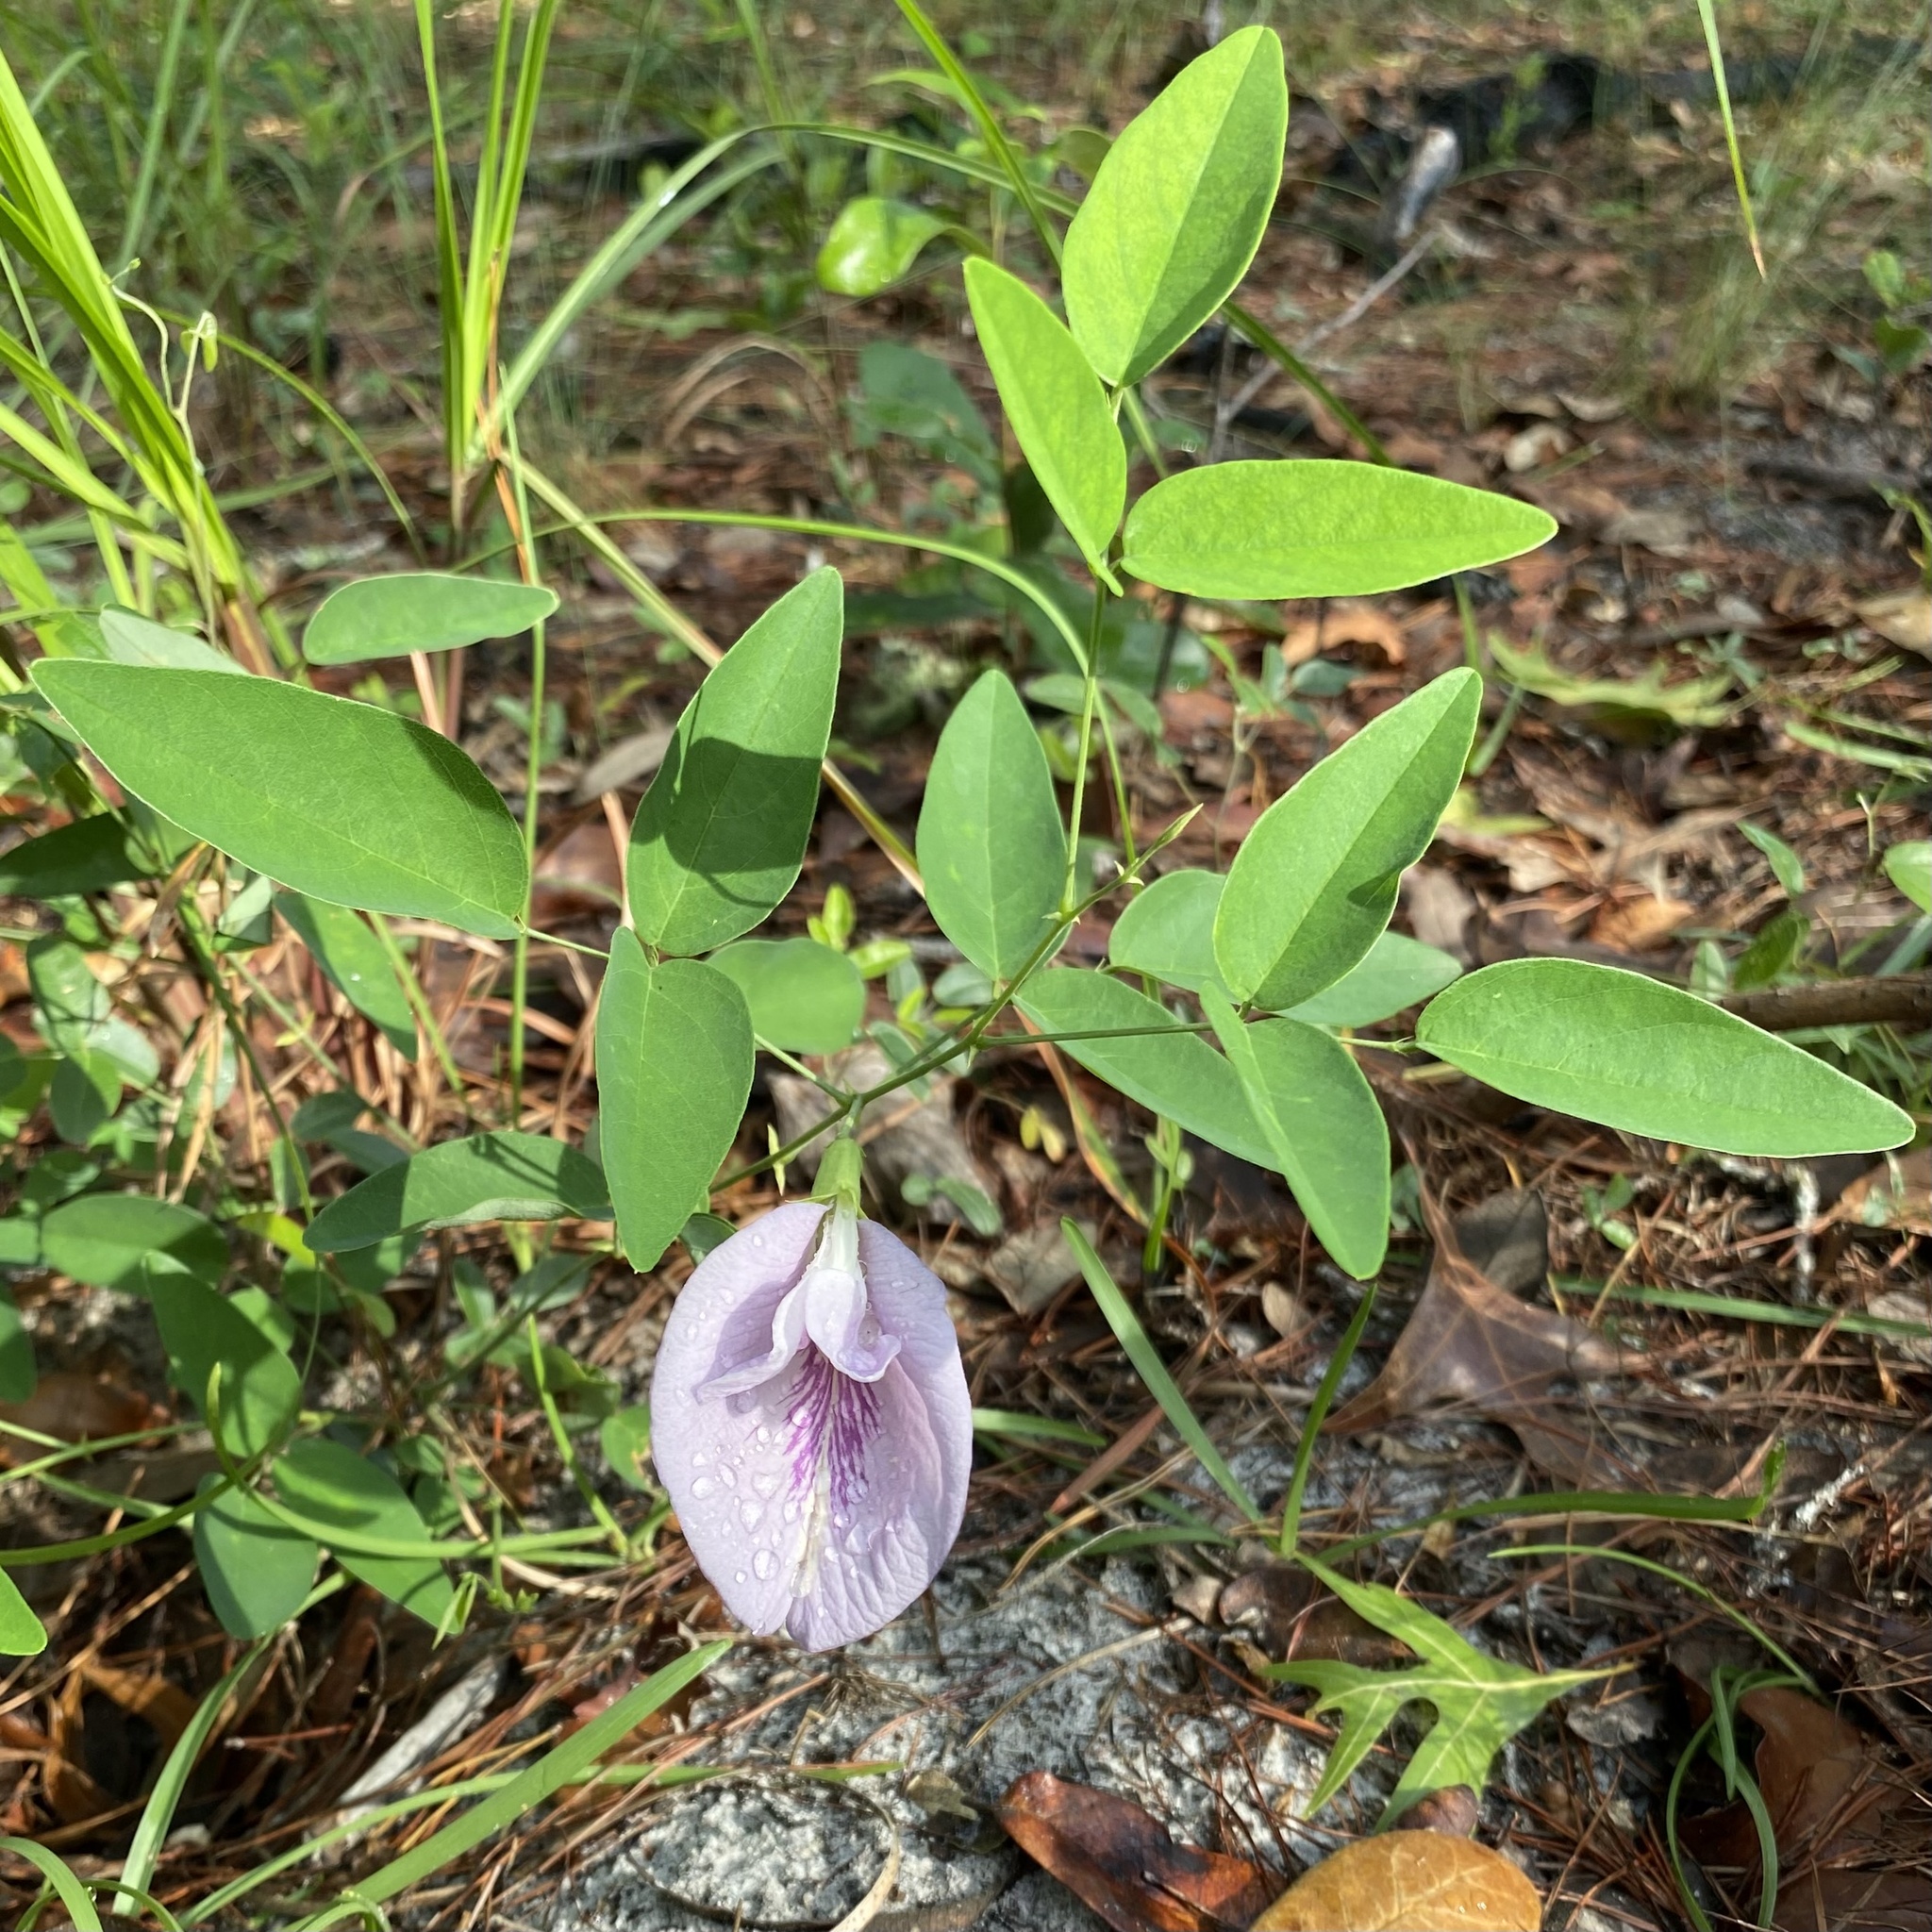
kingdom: Plantae
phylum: Tracheophyta
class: Magnoliopsida
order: Fabales
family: Fabaceae
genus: Clitoria
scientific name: Clitoria mariana
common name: Butterfly-pea
